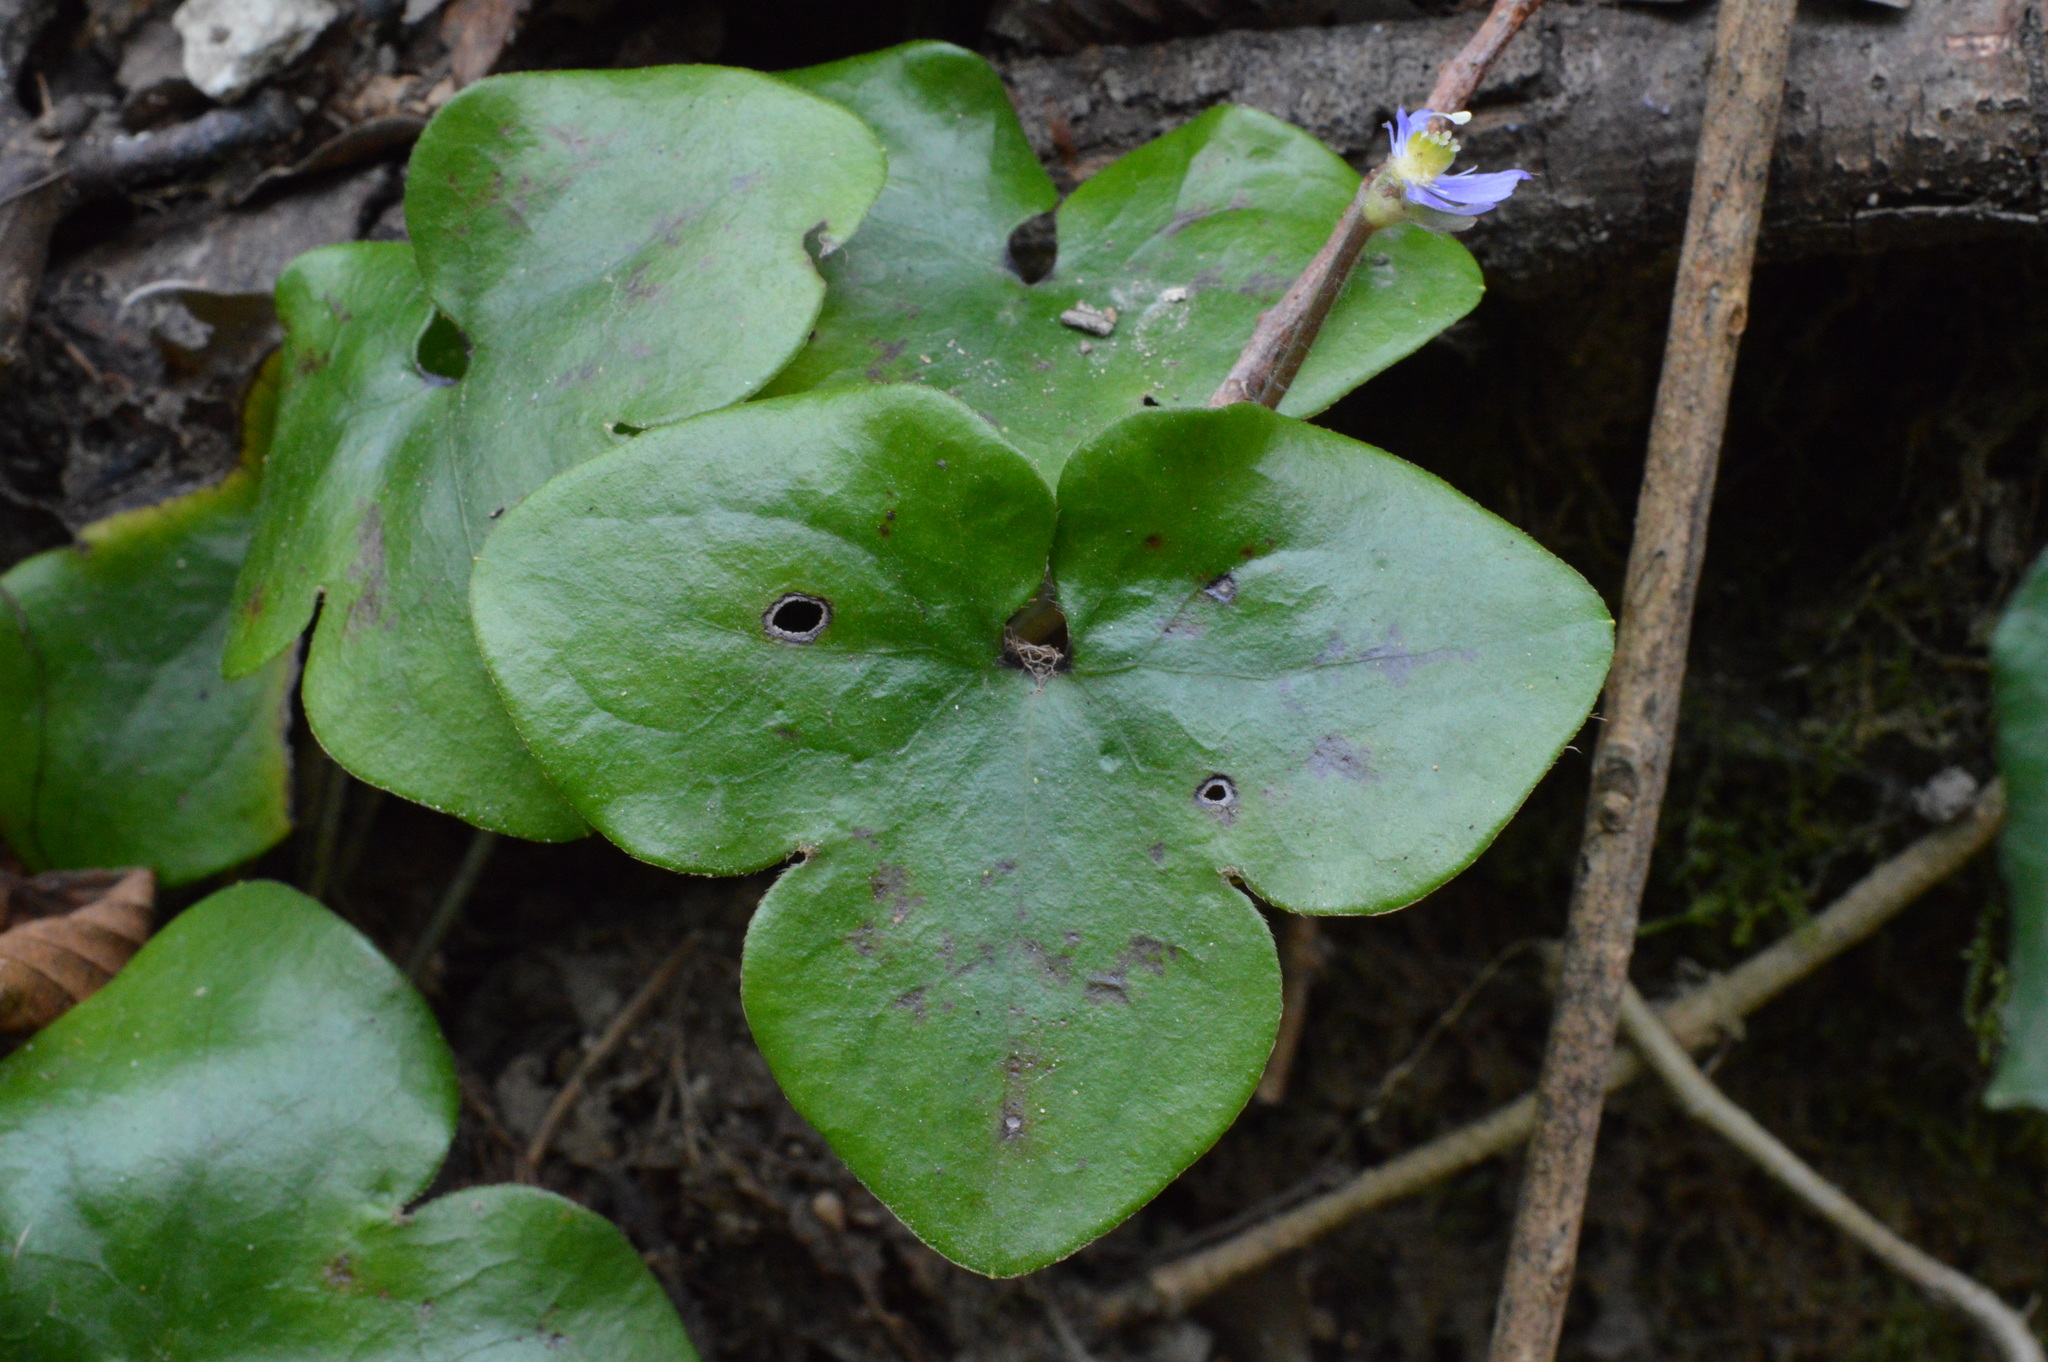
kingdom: Plantae
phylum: Tracheophyta
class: Magnoliopsida
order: Ranunculales
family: Ranunculaceae
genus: Hepatica
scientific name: Hepatica nobilis
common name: Liverleaf
